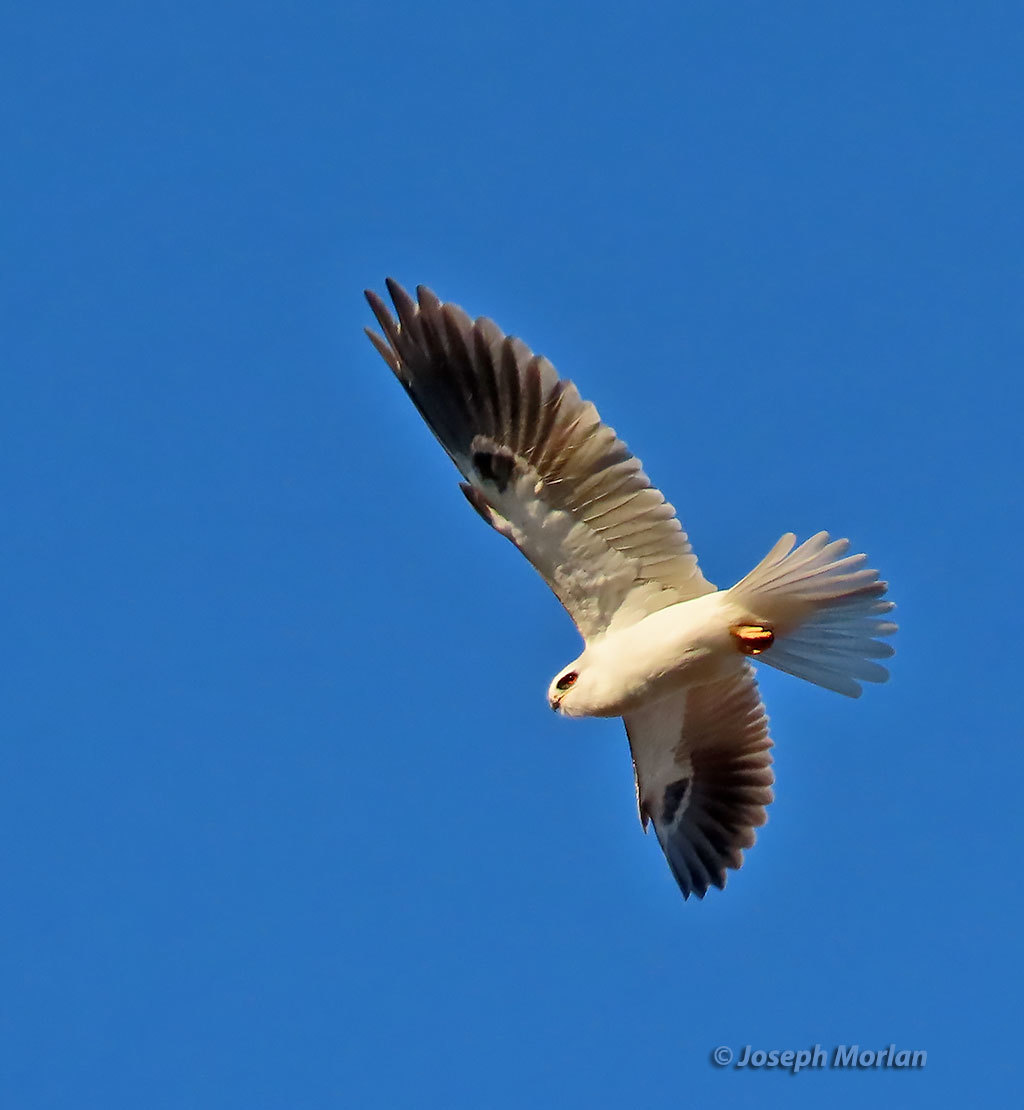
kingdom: Animalia
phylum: Chordata
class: Aves
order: Accipitriformes
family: Accipitridae
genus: Elanus
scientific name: Elanus leucurus
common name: White-tailed kite
